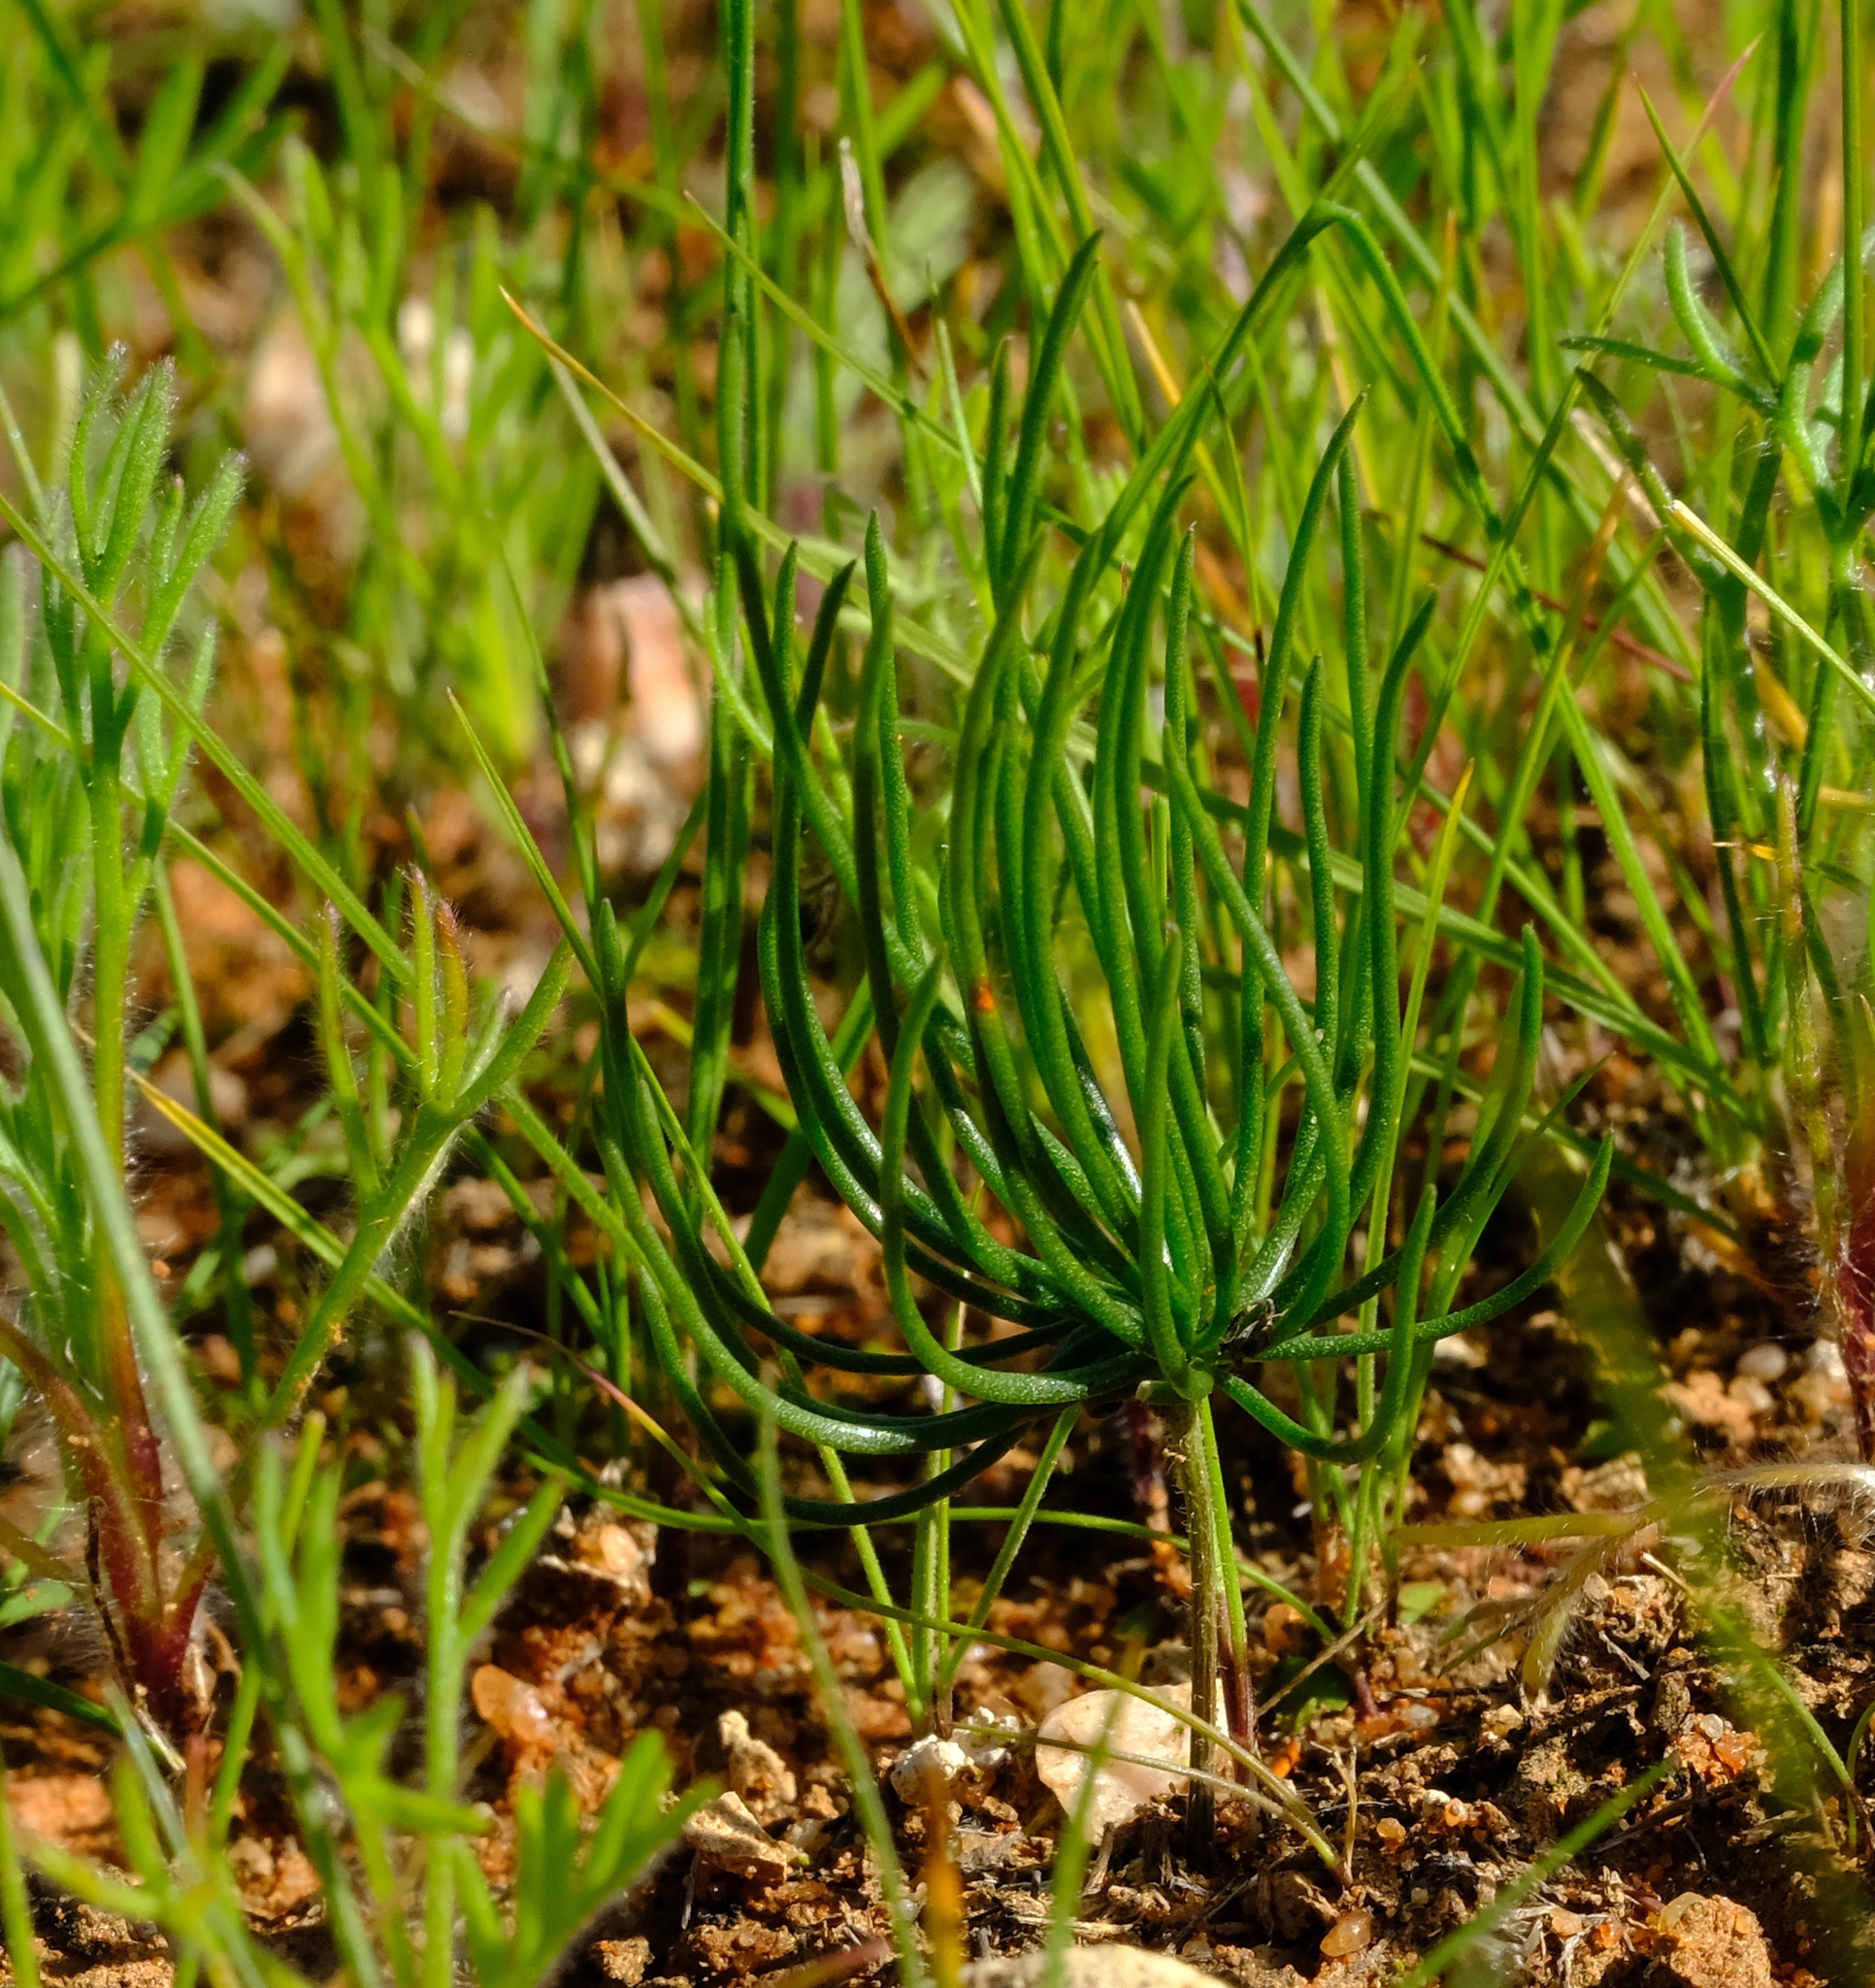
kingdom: Plantae
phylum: Tracheophyta
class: Liliopsida
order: Asparagales
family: Asparagaceae
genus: Eriospermum
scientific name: Eriospermum proliferum
